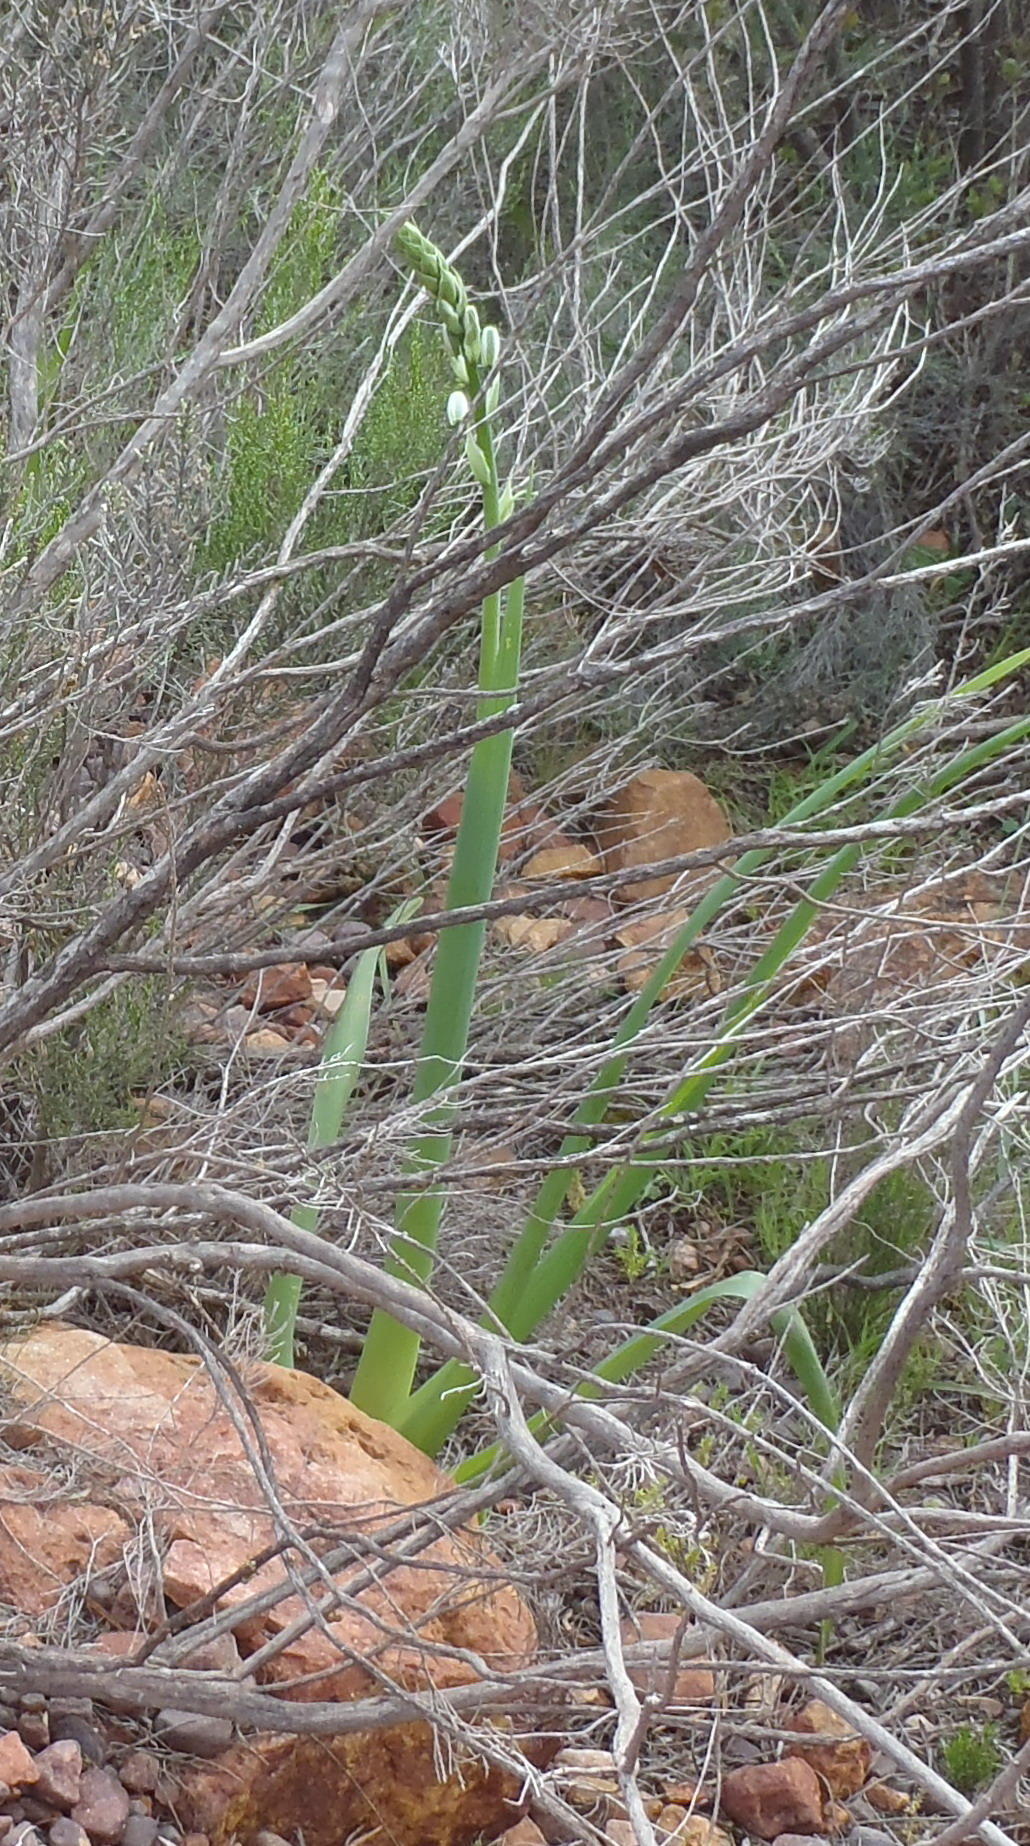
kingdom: Plantae
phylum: Tracheophyta
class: Liliopsida
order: Asparagales
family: Asparagaceae
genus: Albuca
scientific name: Albuca canadensis
